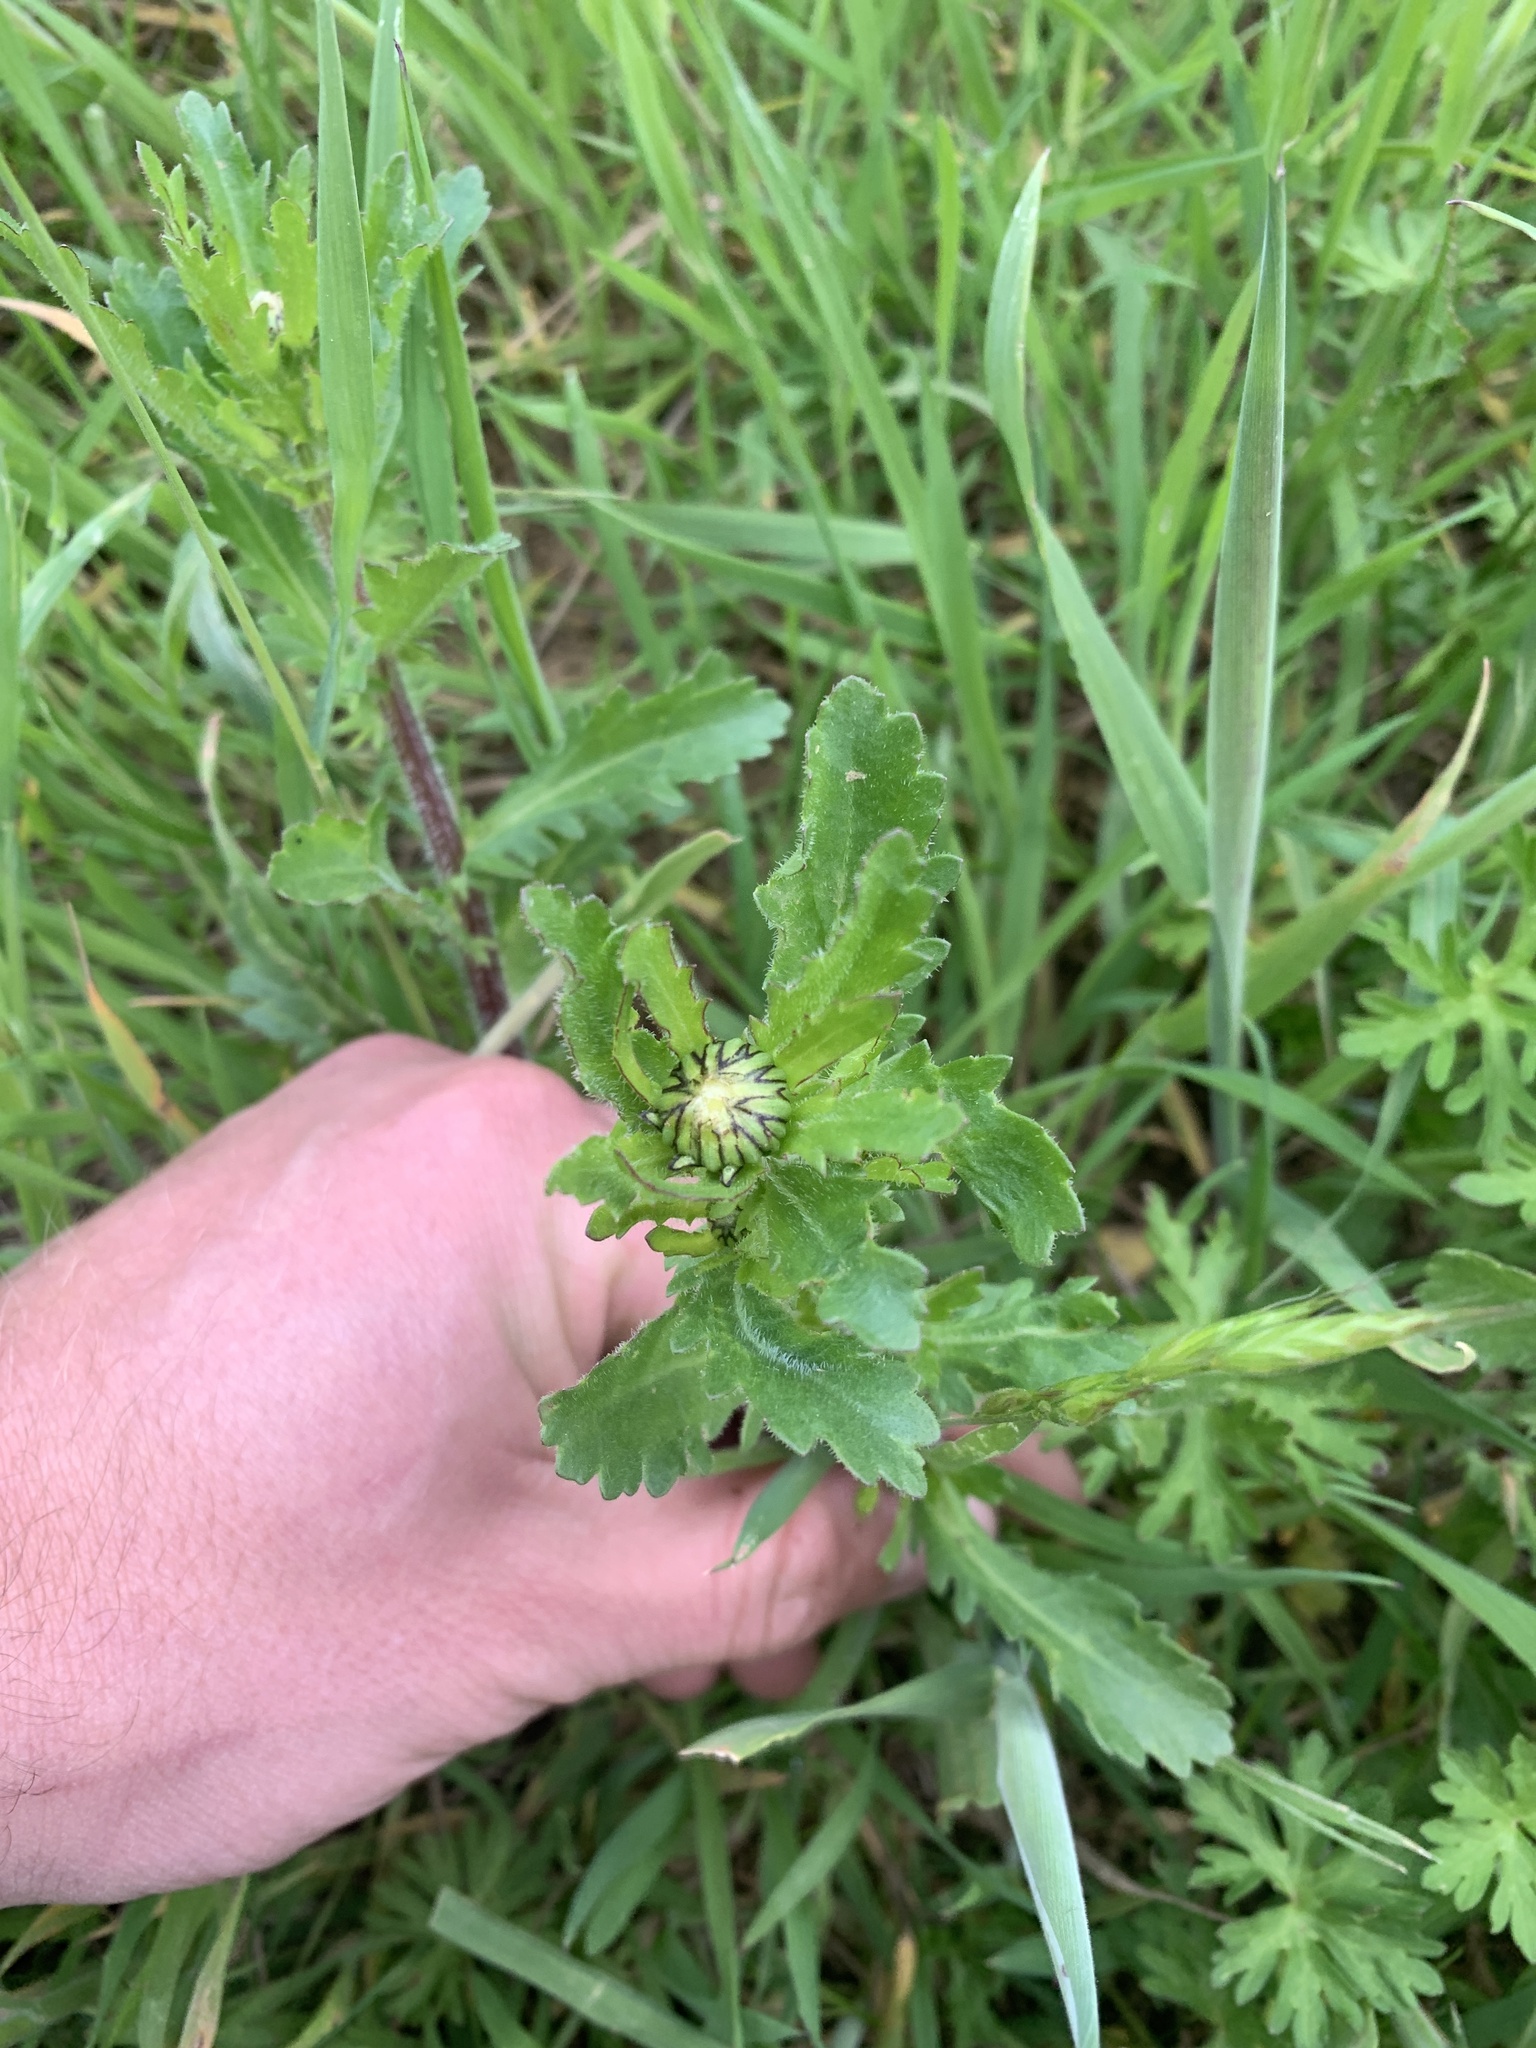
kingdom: Plantae
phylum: Tracheophyta
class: Magnoliopsida
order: Asterales
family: Asteraceae
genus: Leucanthemum
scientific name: Leucanthemum vulgare
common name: Oxeye daisy
